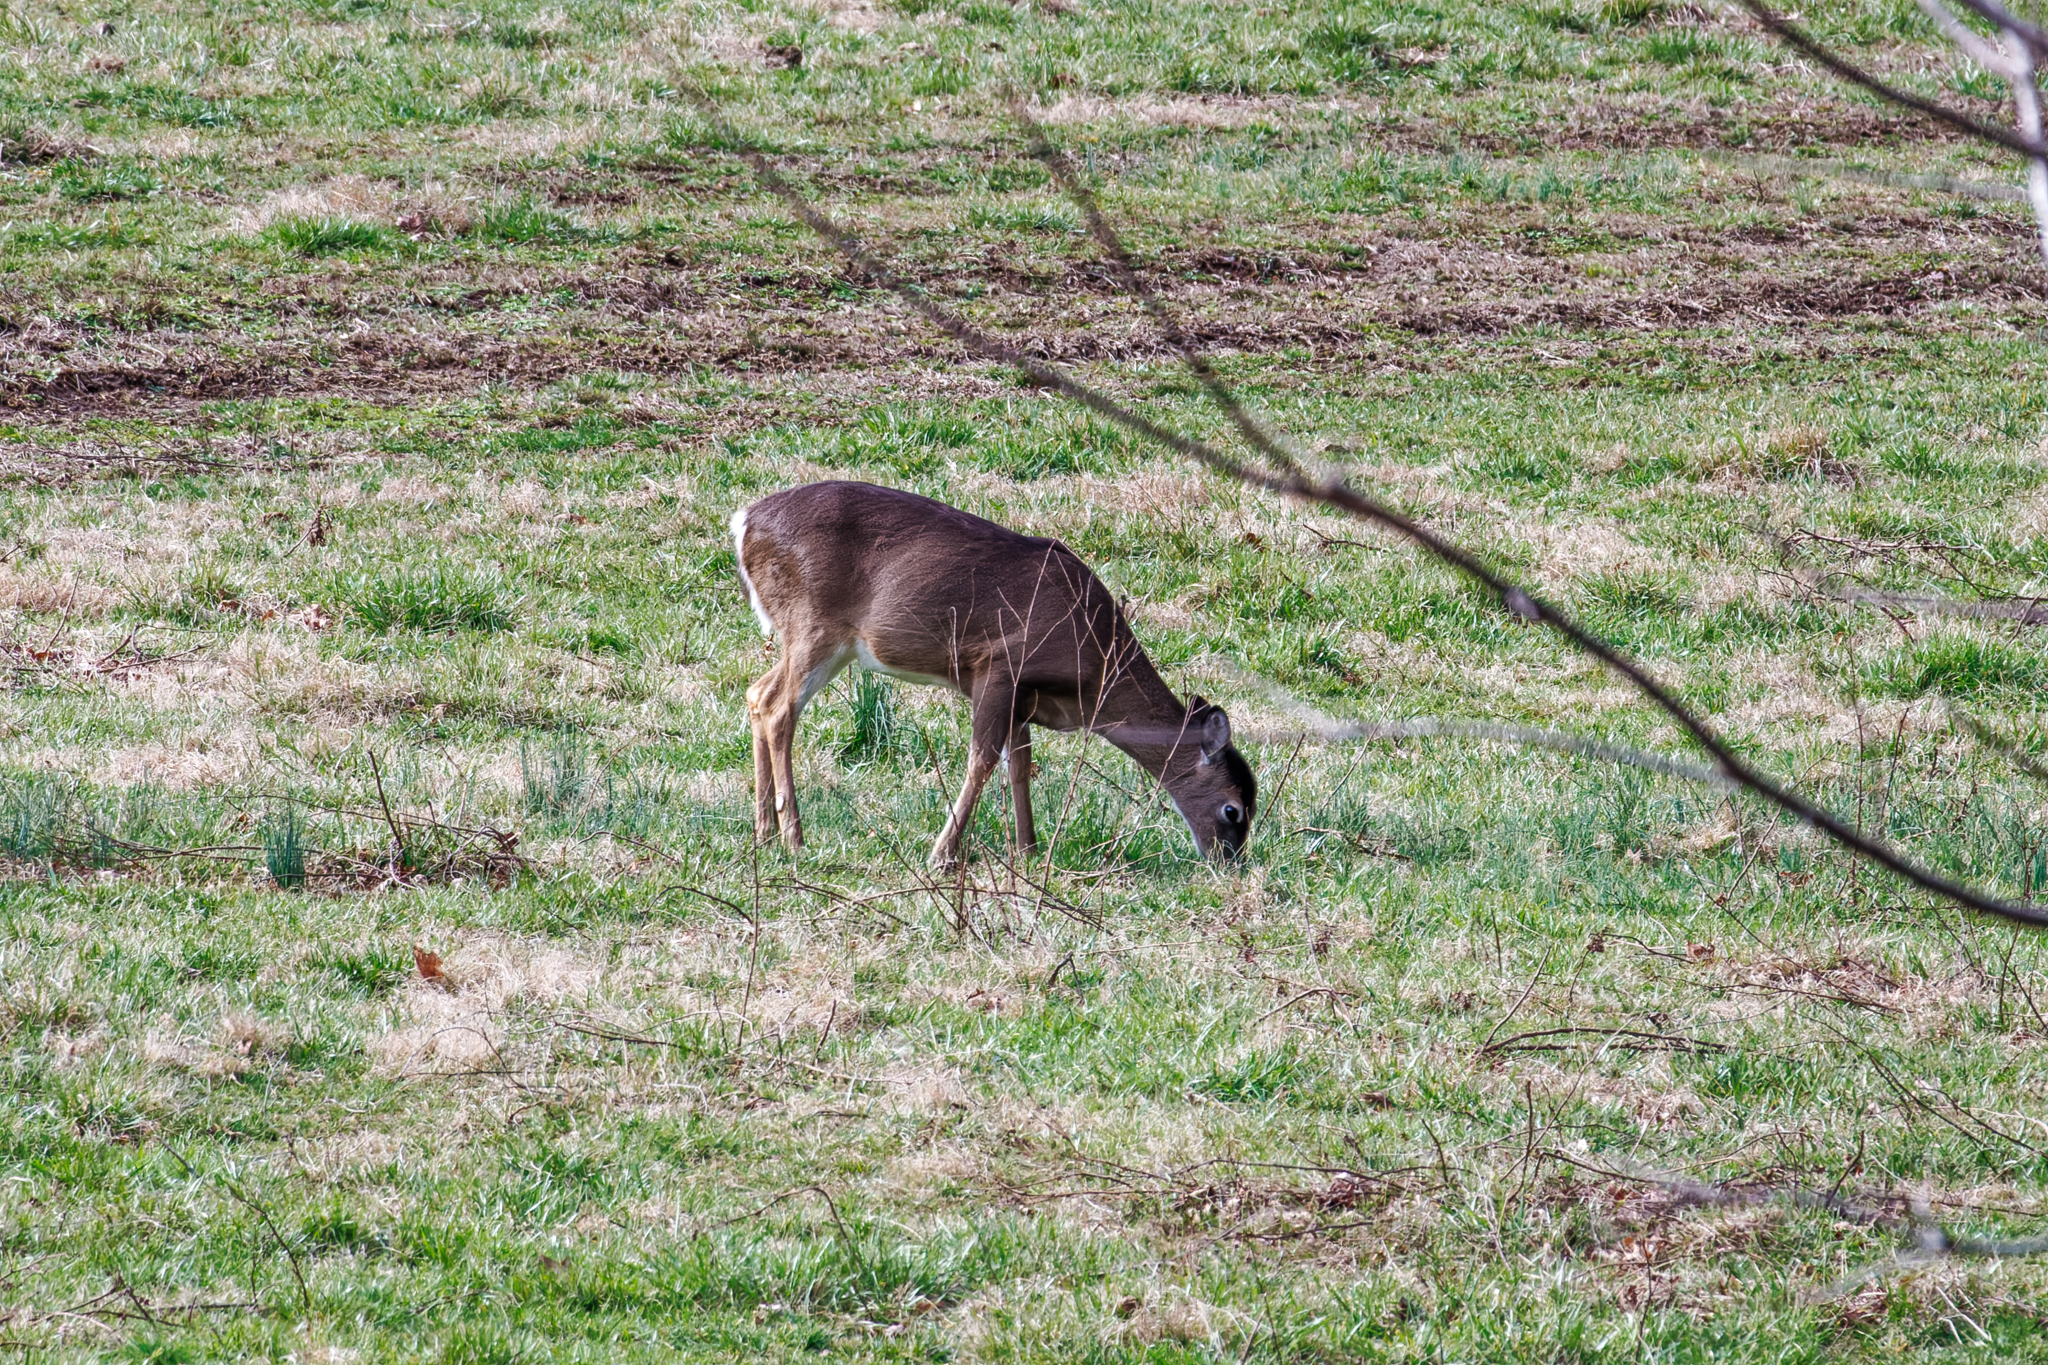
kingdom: Animalia
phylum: Chordata
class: Mammalia
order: Artiodactyla
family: Cervidae
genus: Odocoileus
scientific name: Odocoileus virginianus
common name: White-tailed deer
